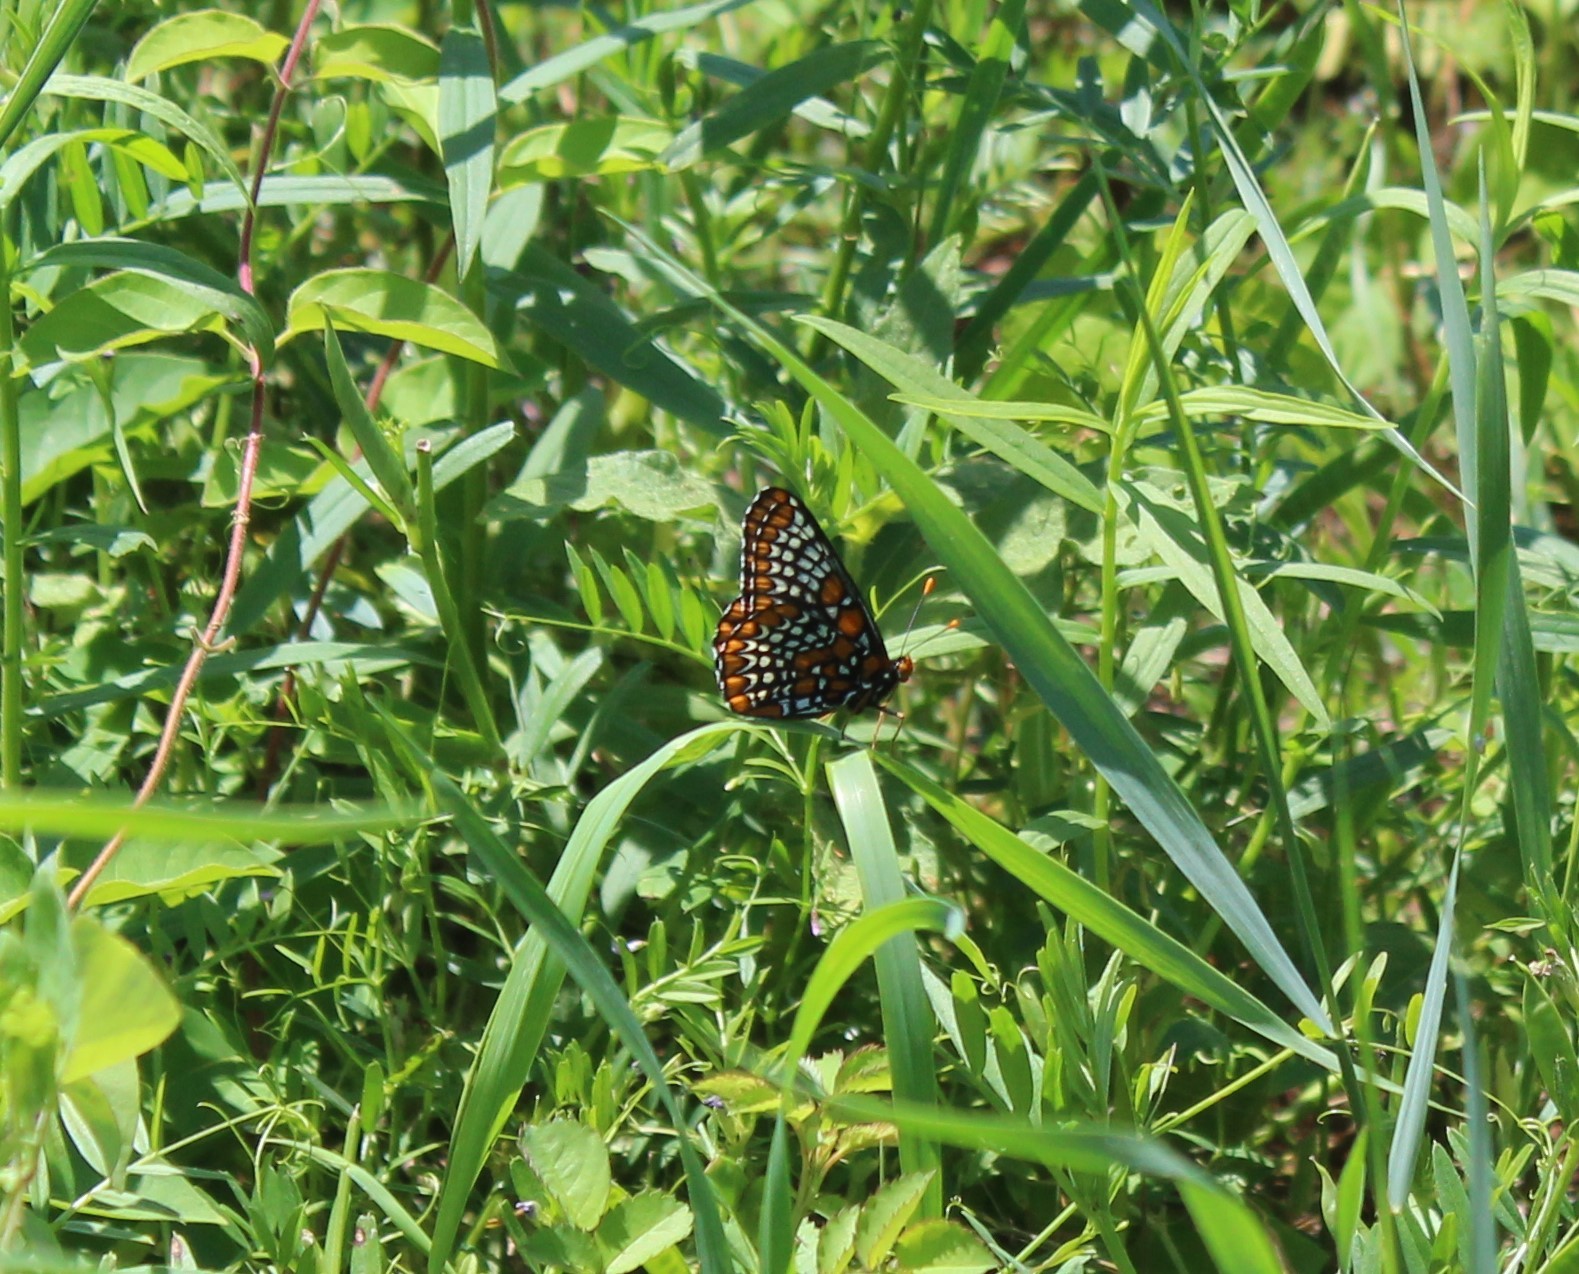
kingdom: Animalia
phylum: Arthropoda
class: Insecta
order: Lepidoptera
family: Nymphalidae
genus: Euphydryas
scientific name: Euphydryas phaeton
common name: Baltimore checkerspot
